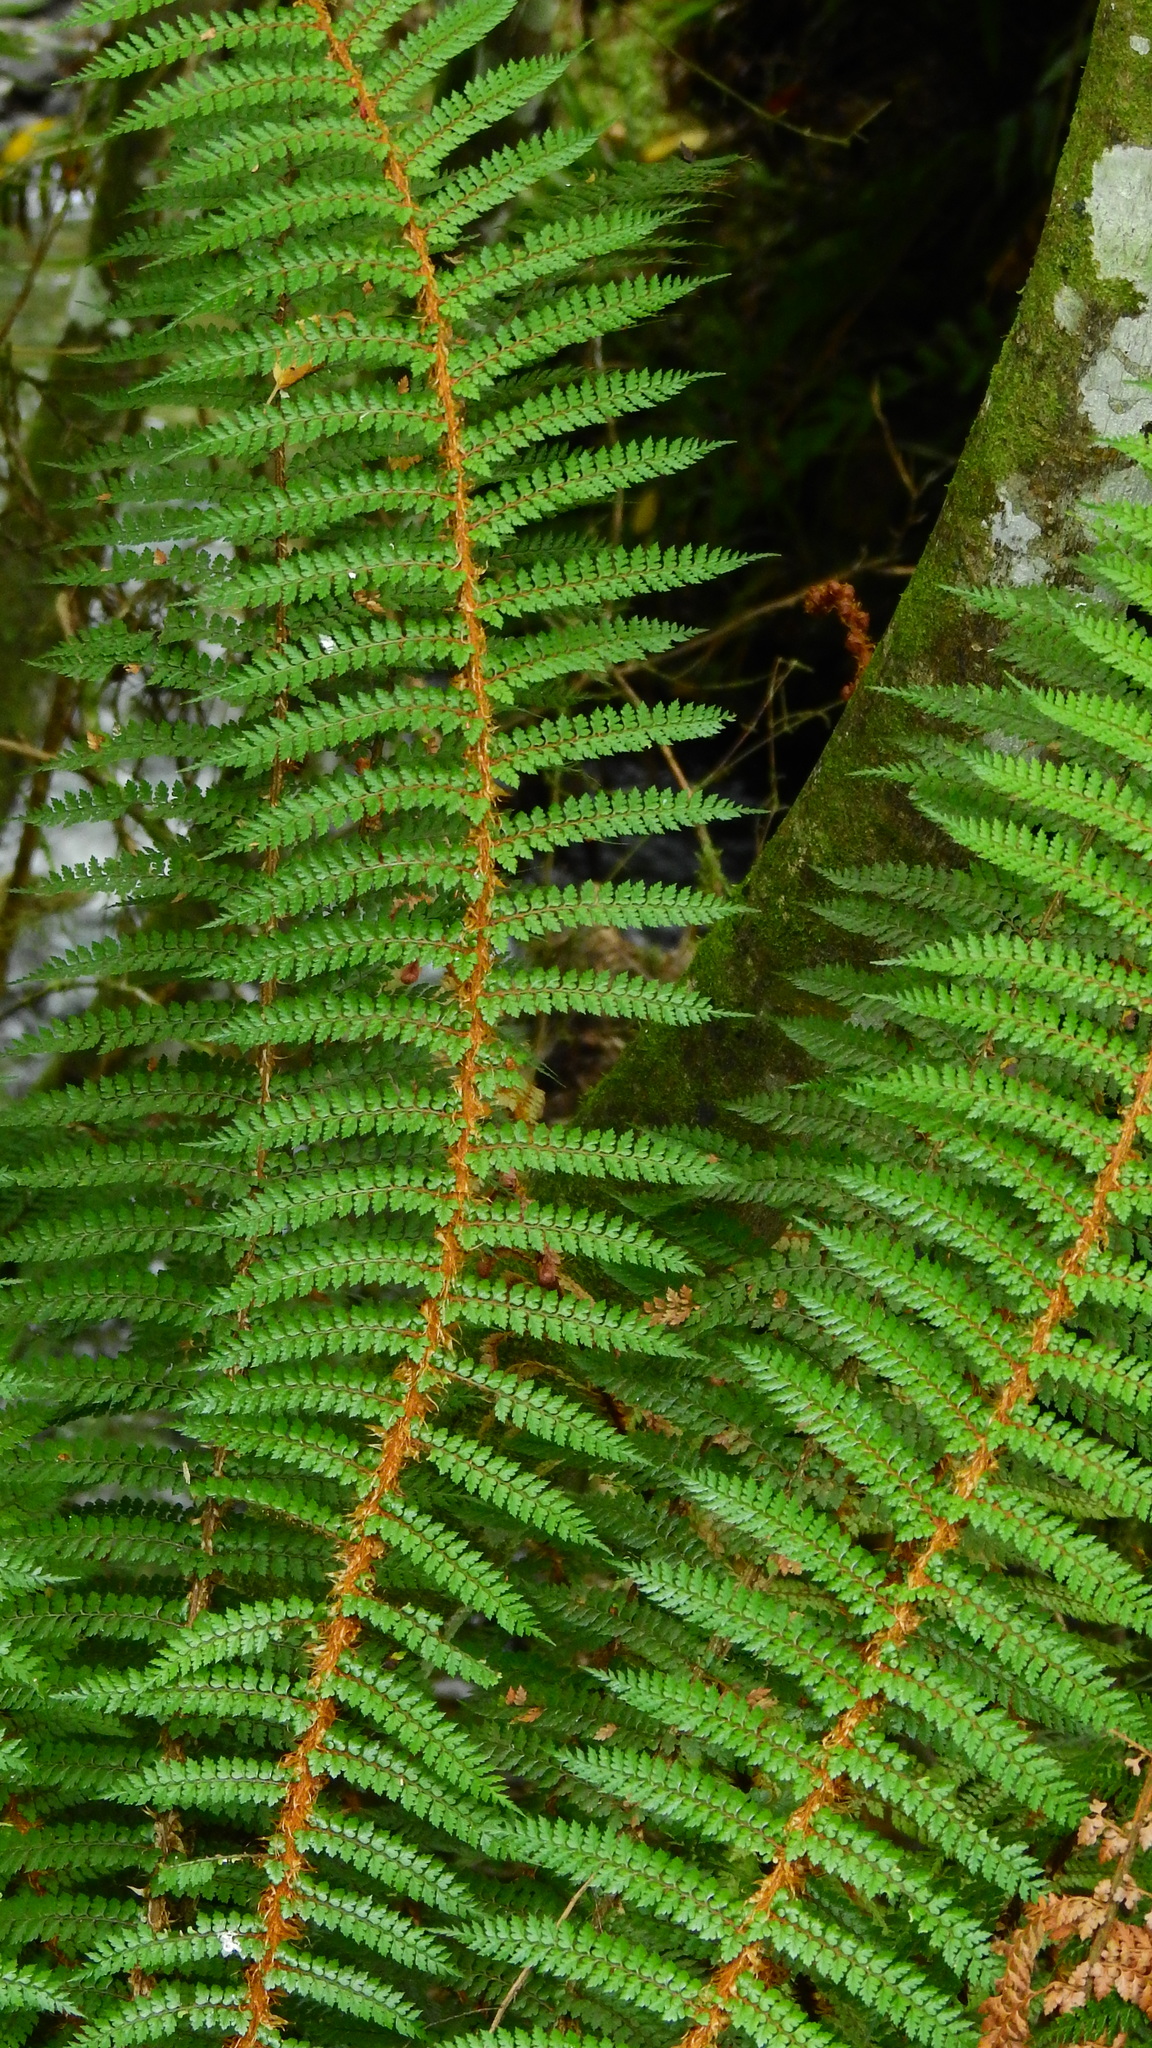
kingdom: Plantae
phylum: Tracheophyta
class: Polypodiopsida
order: Polypodiales
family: Dryopteridaceae
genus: Polystichum
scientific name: Polystichum vestitum
